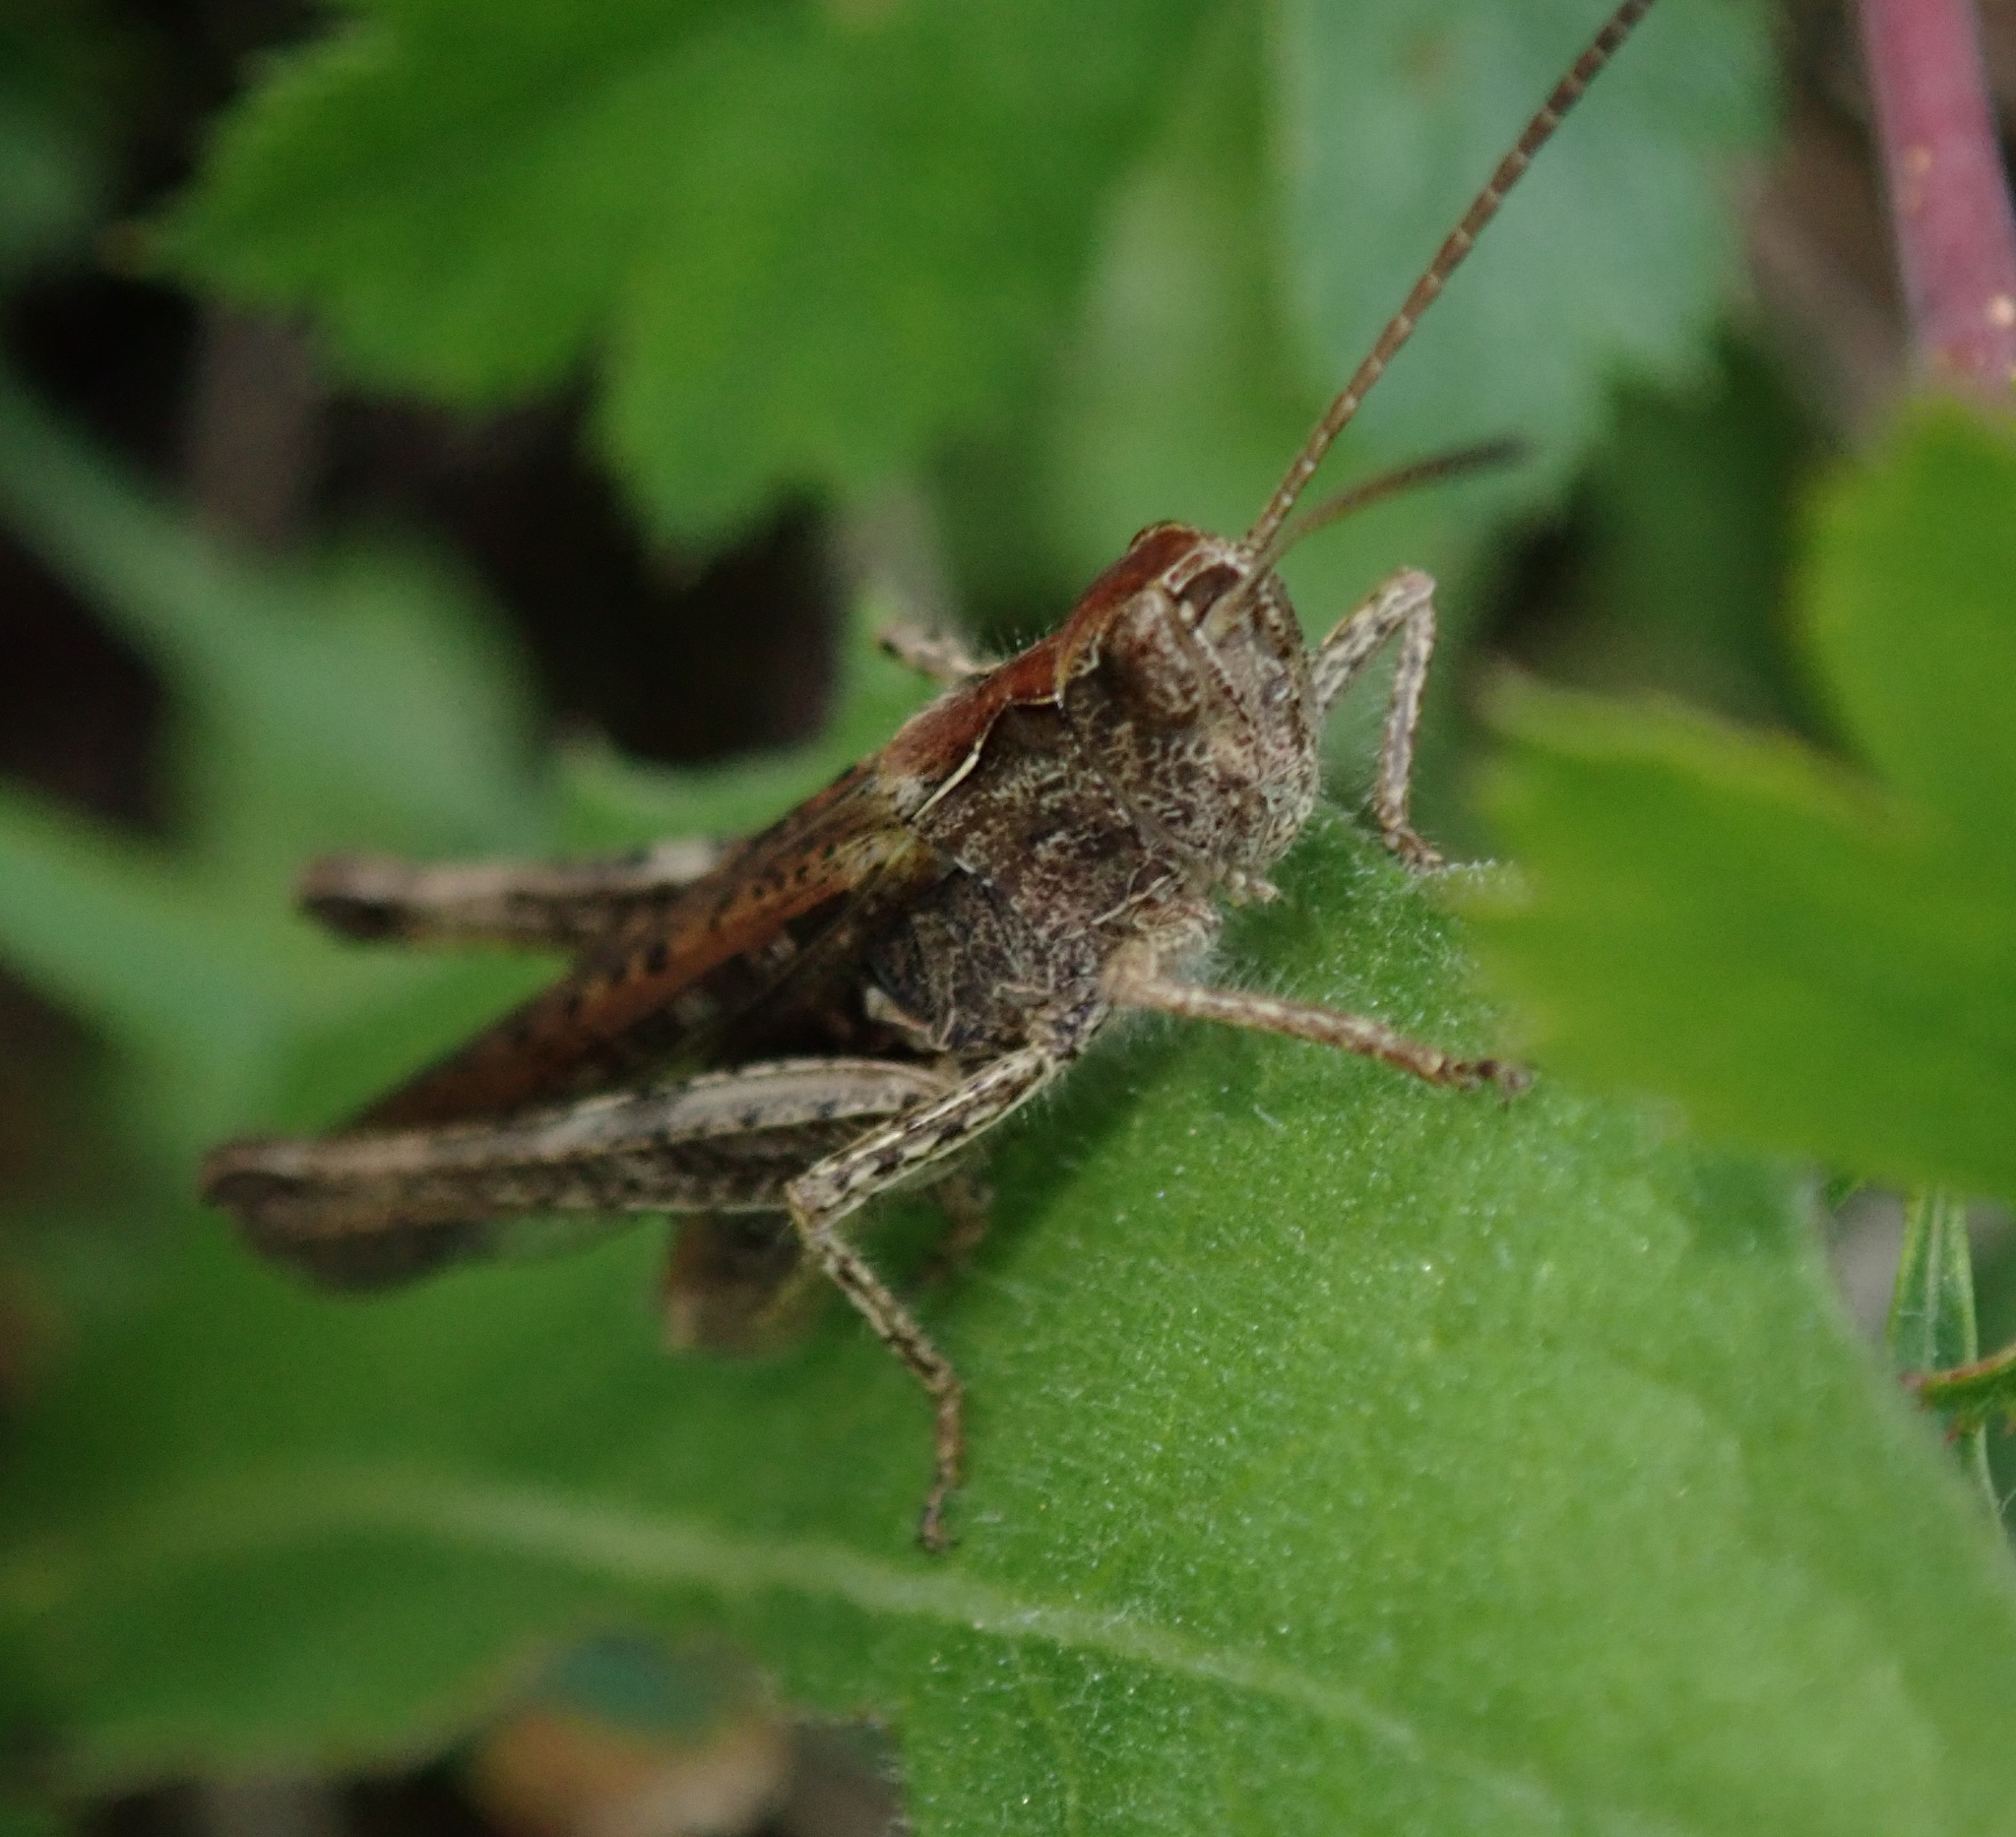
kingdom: Animalia
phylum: Arthropoda
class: Insecta
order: Orthoptera
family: Acrididae
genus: Chorthippus
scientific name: Chorthippus brunneus
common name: Field grasshopper
